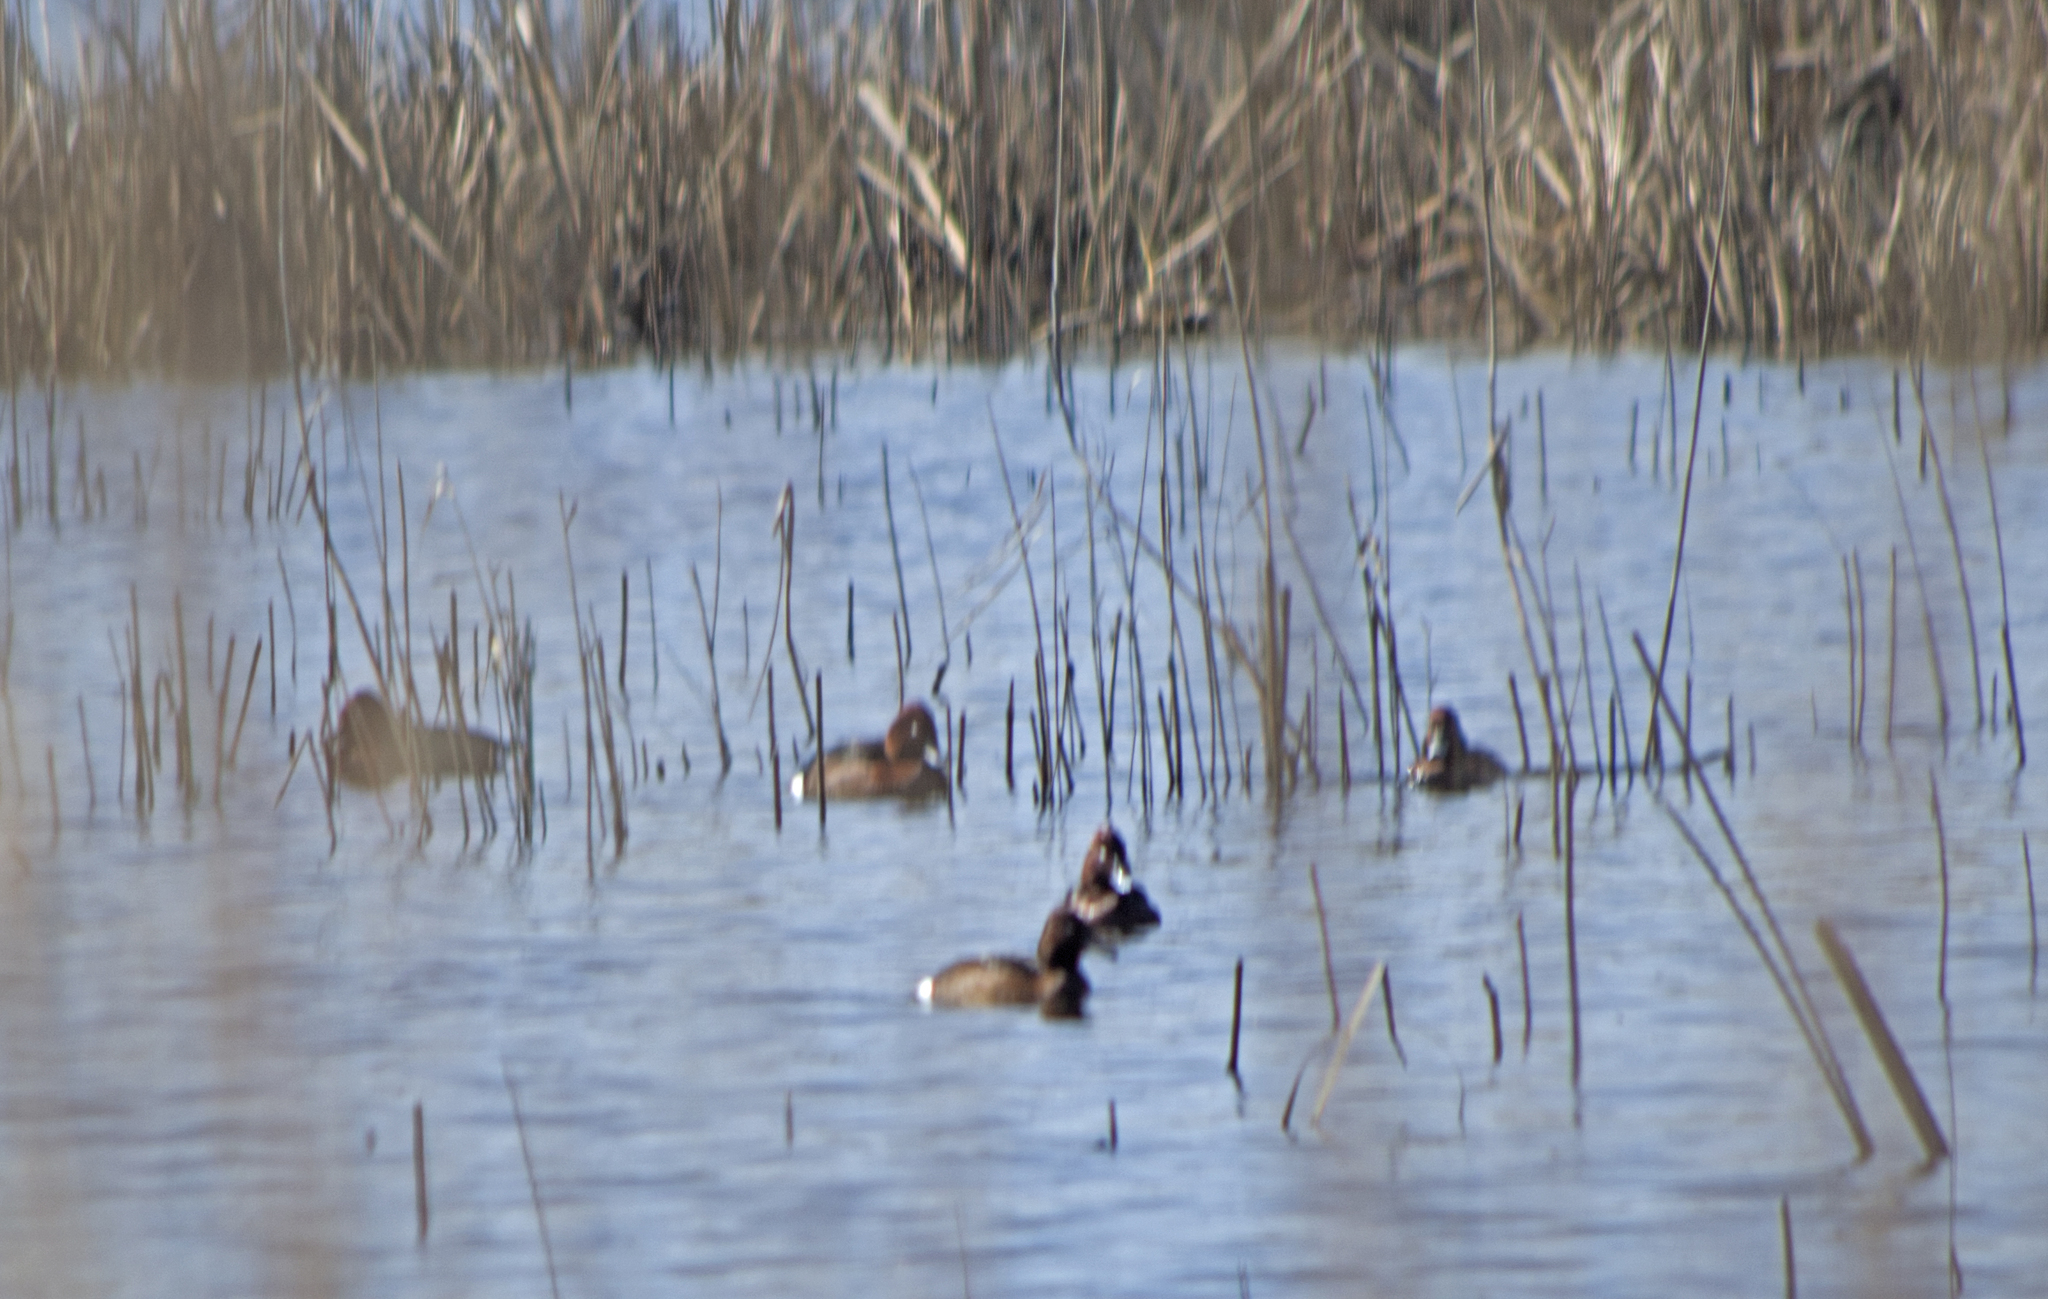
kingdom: Animalia
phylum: Chordata
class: Aves
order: Anseriformes
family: Anatidae
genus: Aythya
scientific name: Aythya nyroca
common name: Ferruginous duck
